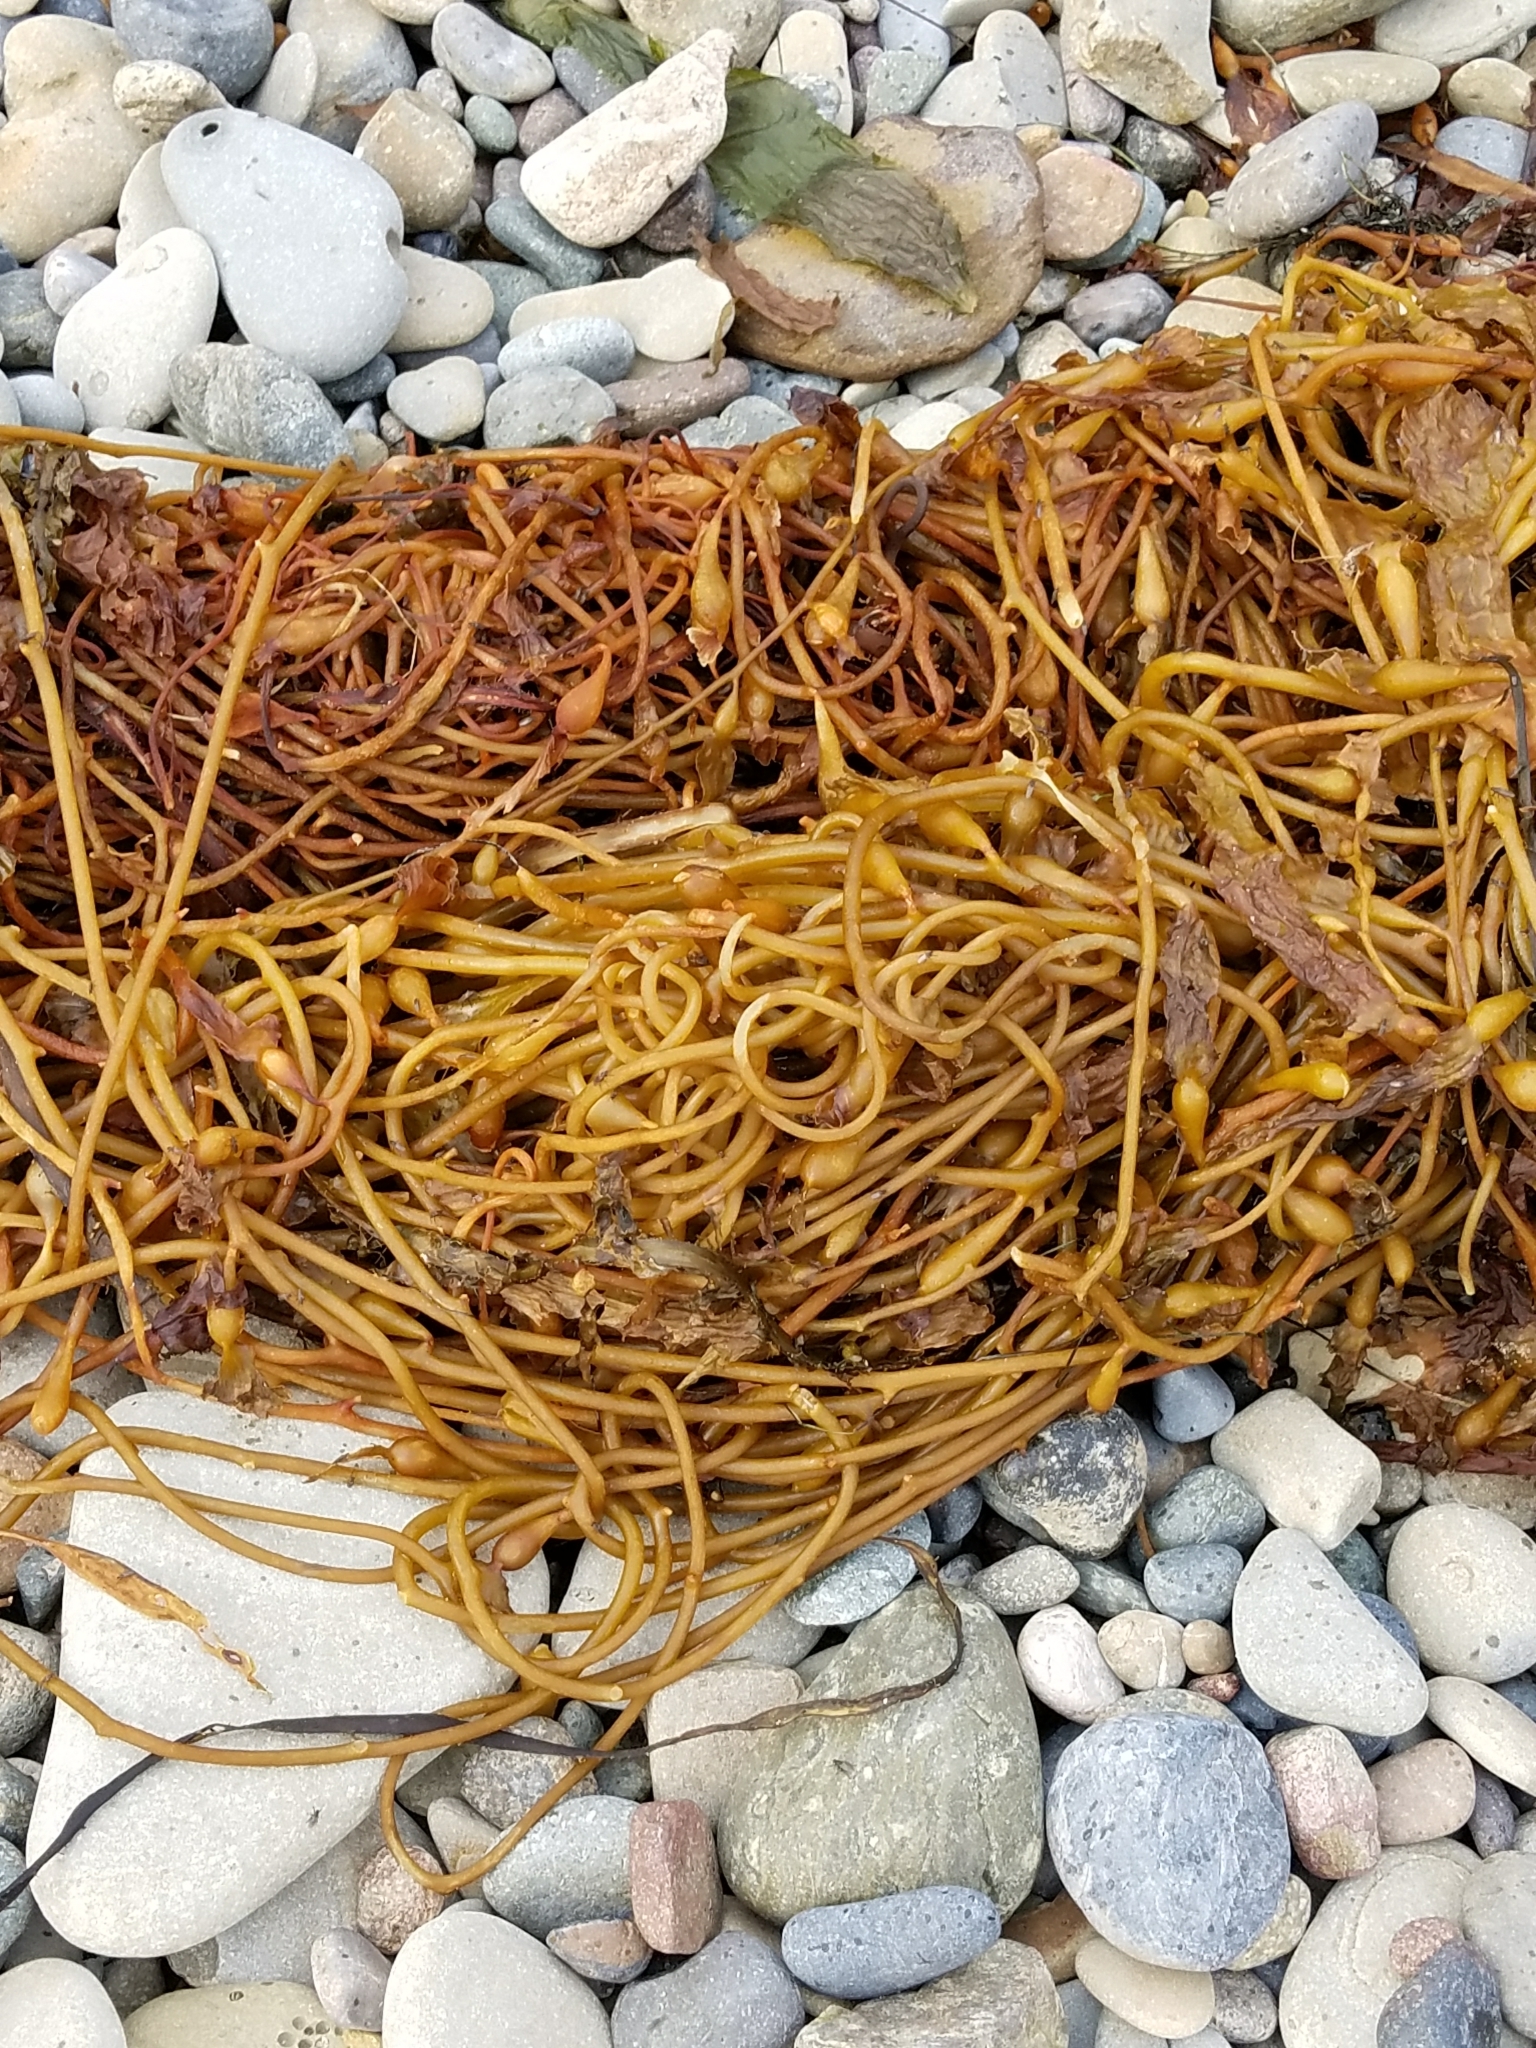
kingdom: Chromista
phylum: Ochrophyta
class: Phaeophyceae
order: Laminariales
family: Laminariaceae
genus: Macrocystis
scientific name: Macrocystis pyrifera
